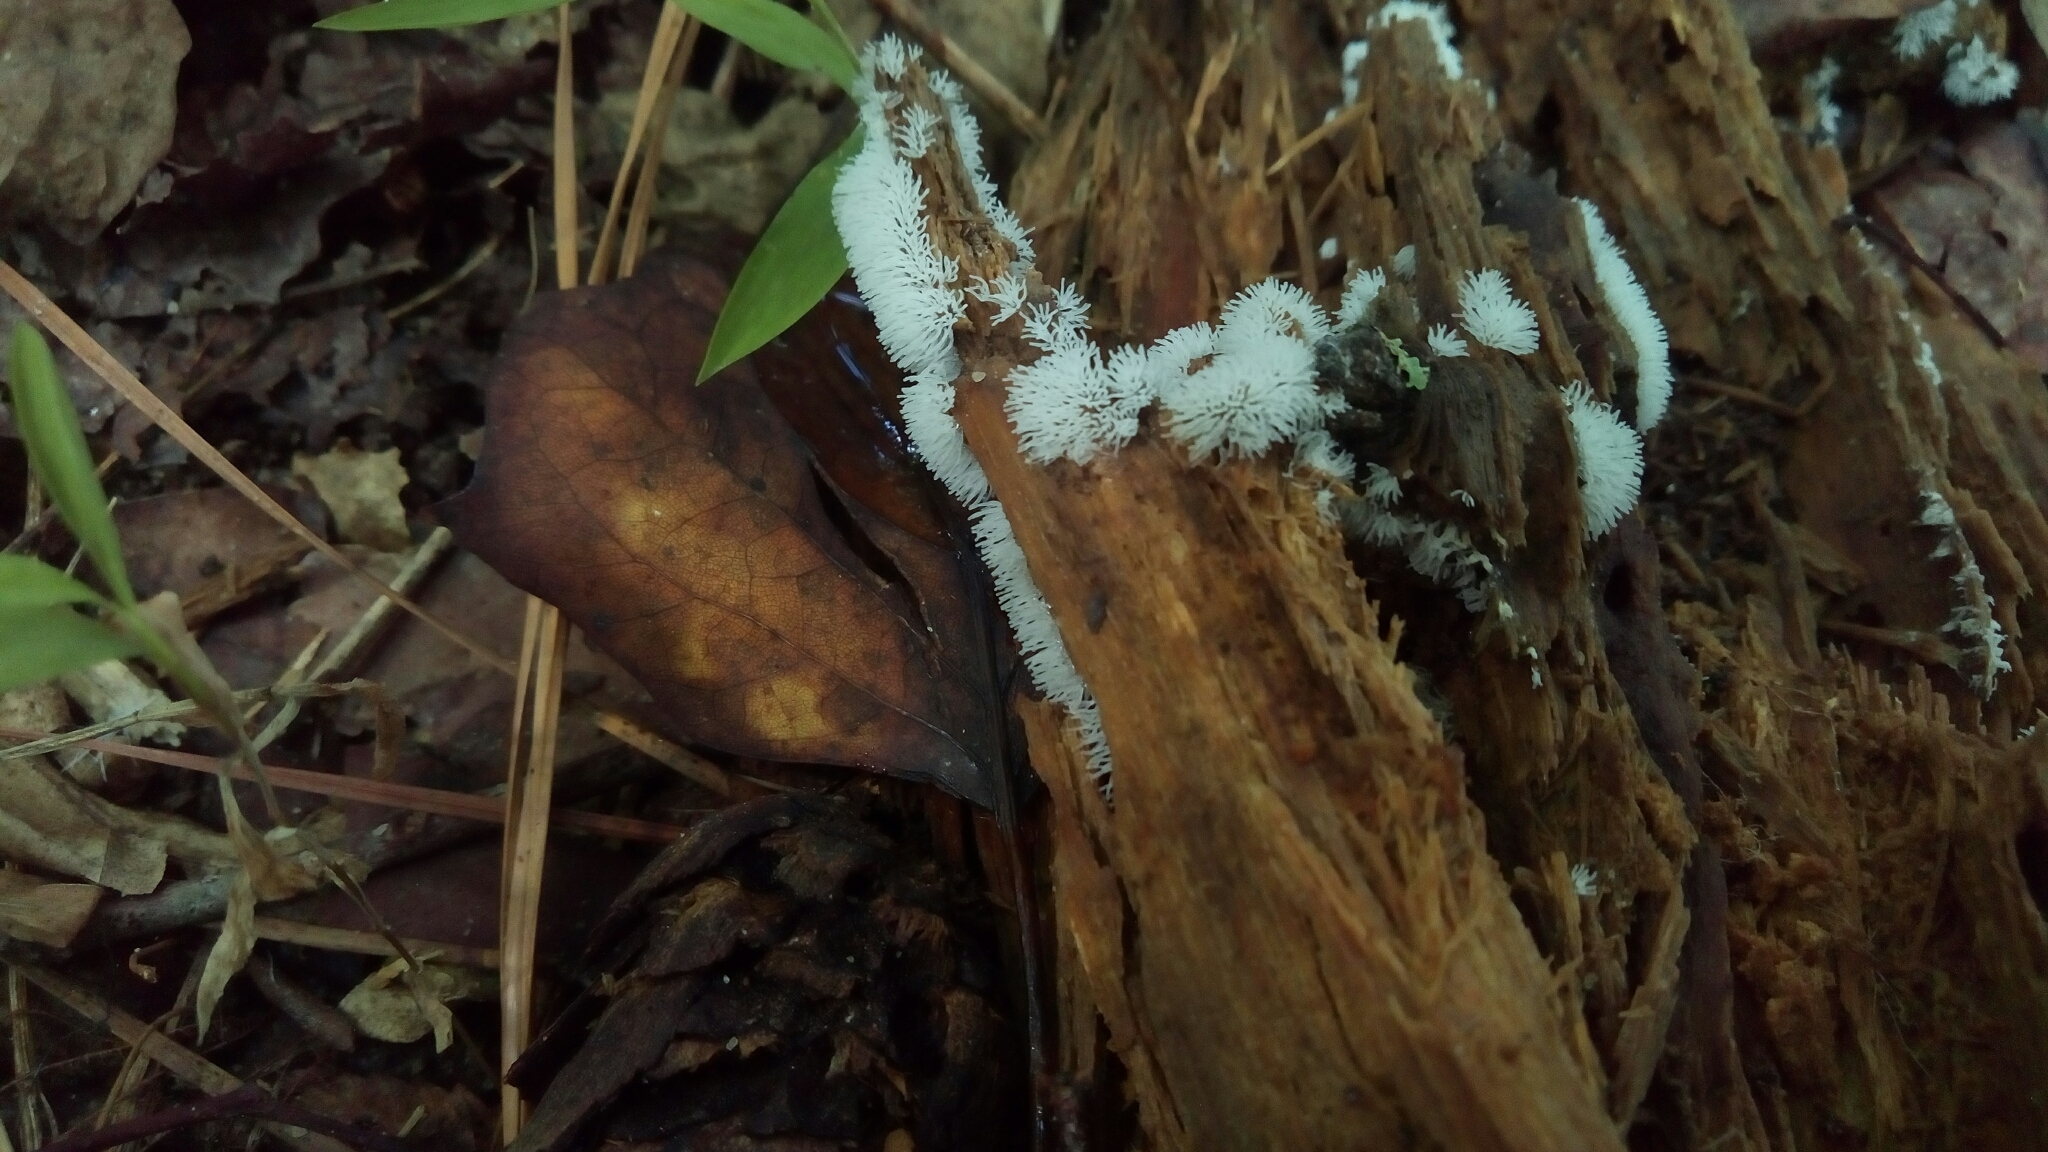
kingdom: Protozoa
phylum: Mycetozoa
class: Protosteliomycetes
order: Ceratiomyxales
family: Ceratiomyxaceae
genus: Ceratiomyxa
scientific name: Ceratiomyxa fruticulosa
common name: Honeycomb coral slime mold
